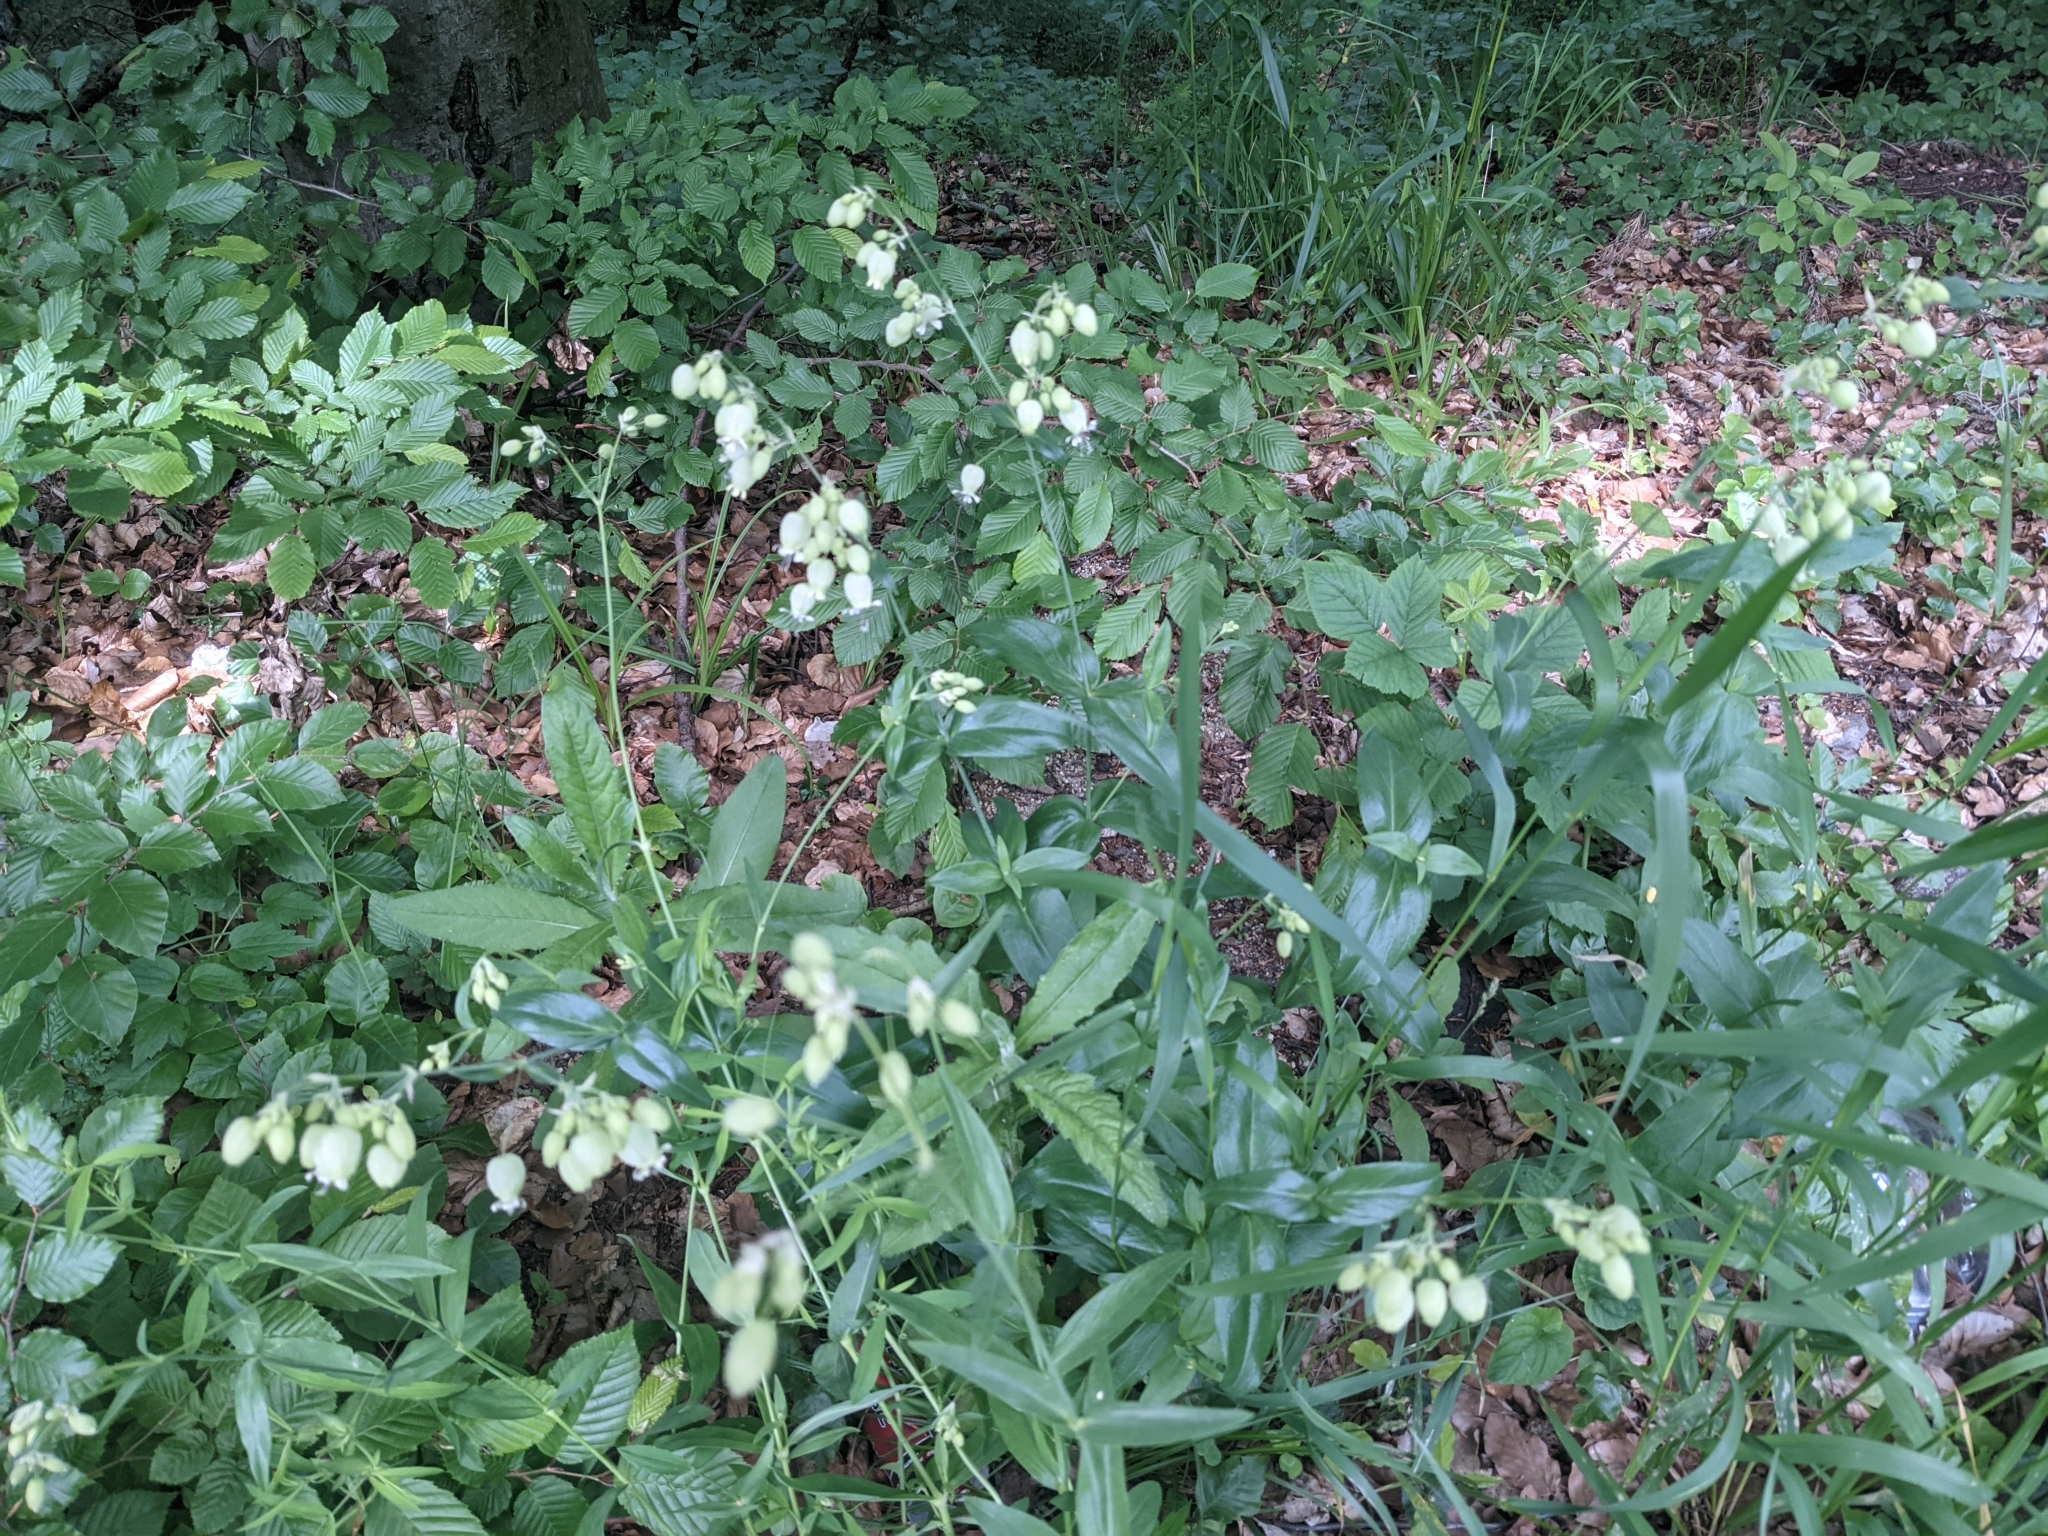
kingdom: Plantae
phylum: Tracheophyta
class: Magnoliopsida
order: Caryophyllales
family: Caryophyllaceae
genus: Silene
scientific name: Silene vulgaris
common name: Bladder campion
